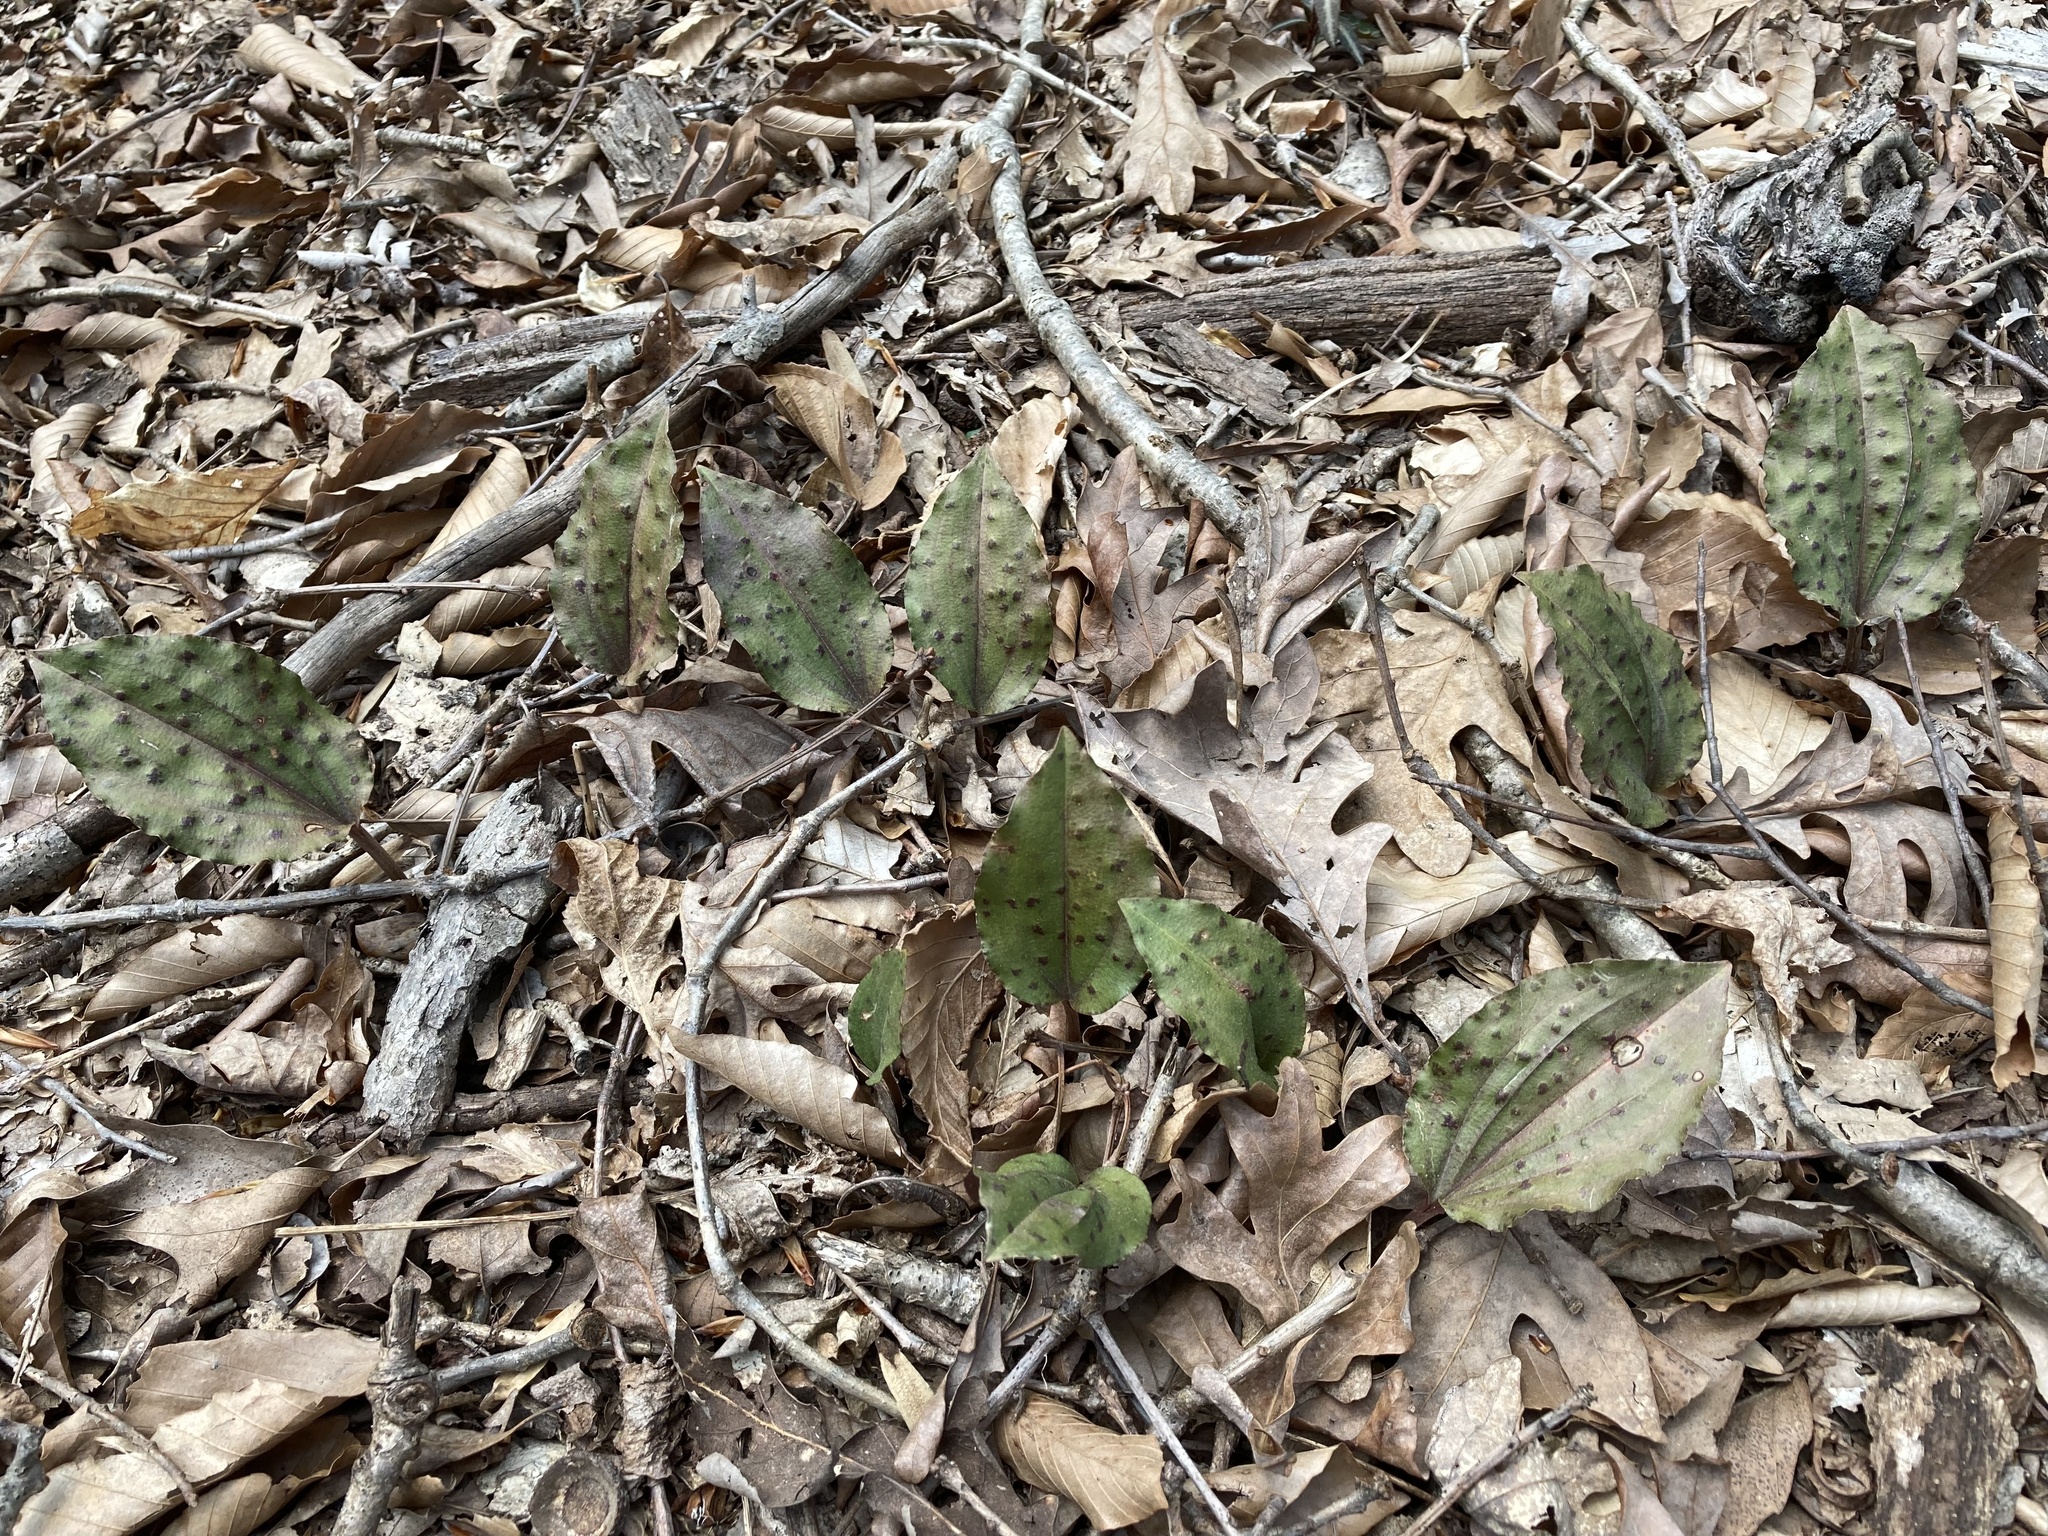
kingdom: Plantae
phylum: Tracheophyta
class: Liliopsida
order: Asparagales
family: Orchidaceae
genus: Tipularia
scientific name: Tipularia discolor
